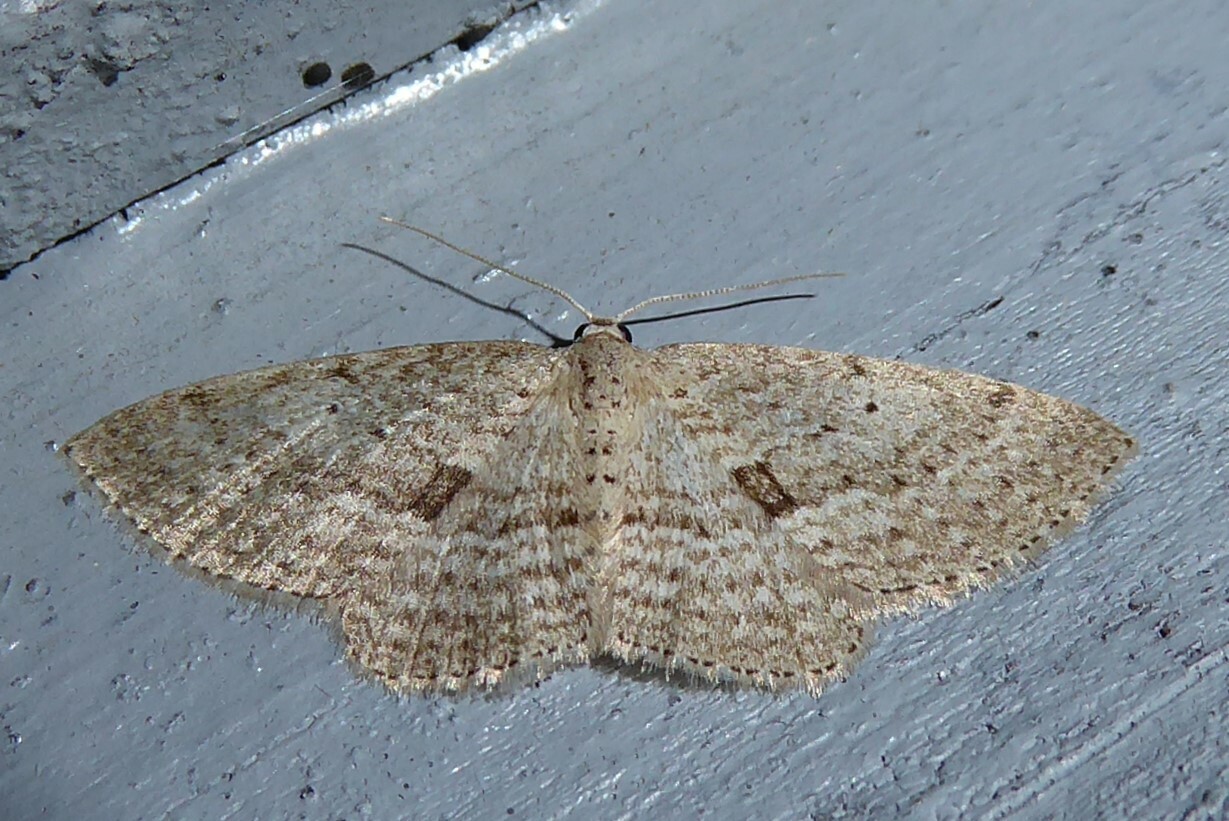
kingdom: Animalia
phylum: Arthropoda
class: Insecta
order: Lepidoptera
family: Geometridae
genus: Poecilasthena
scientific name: Poecilasthena schistaria
